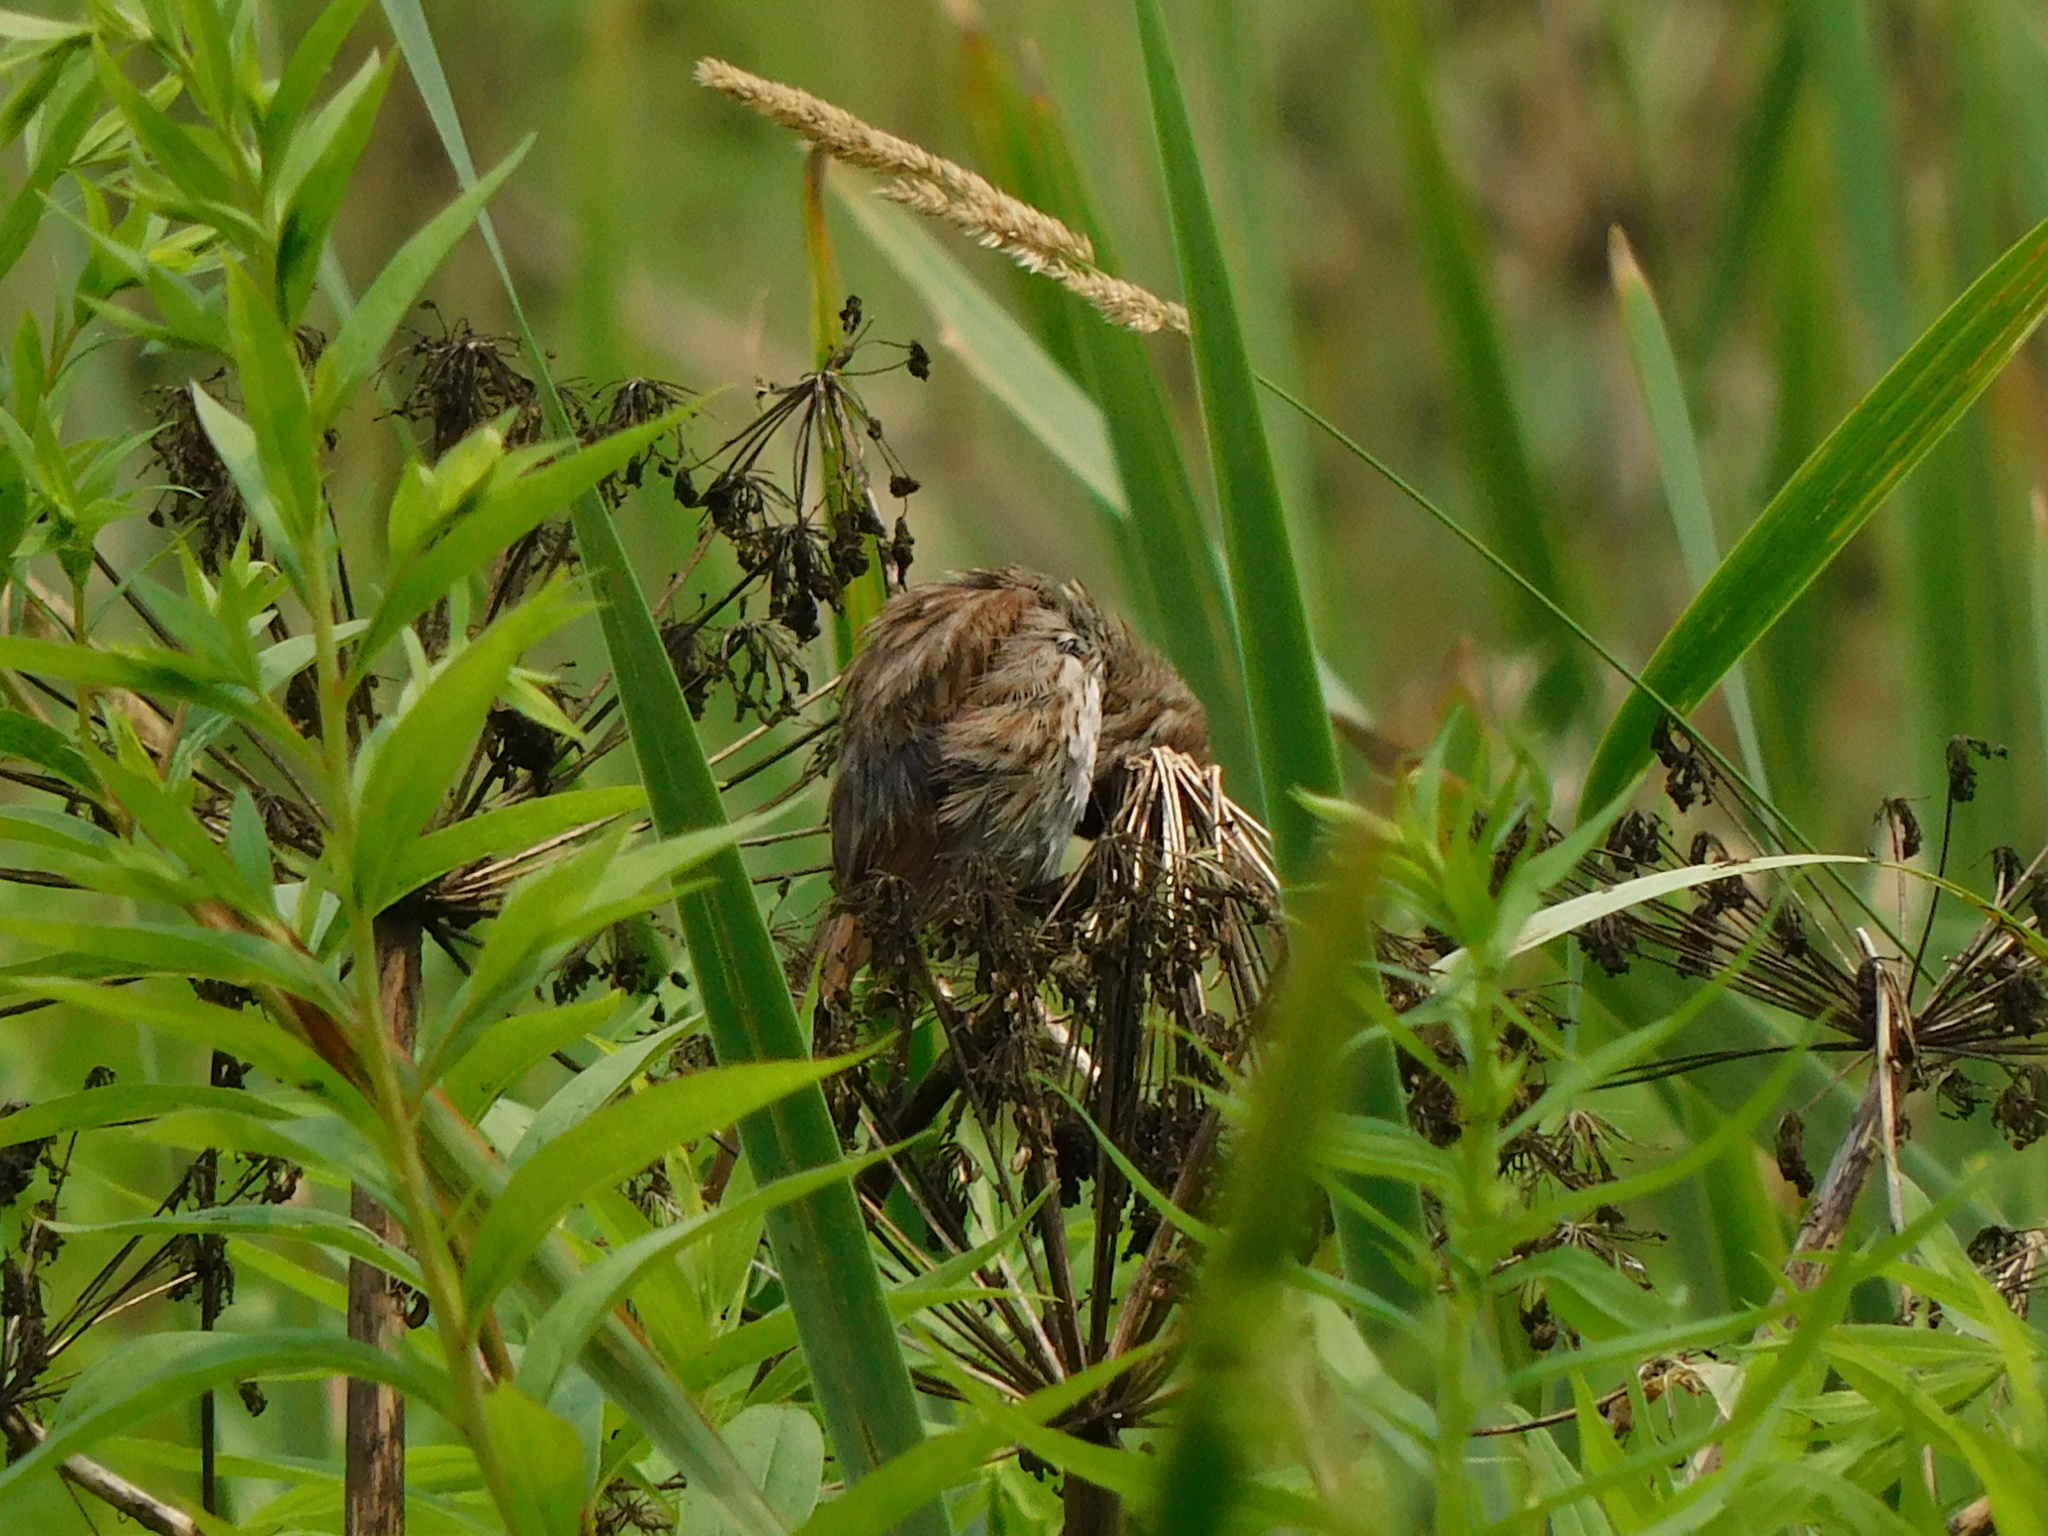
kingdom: Animalia
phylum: Chordata
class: Aves
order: Passeriformes
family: Passerellidae
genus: Melospiza
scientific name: Melospiza melodia
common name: Song sparrow
